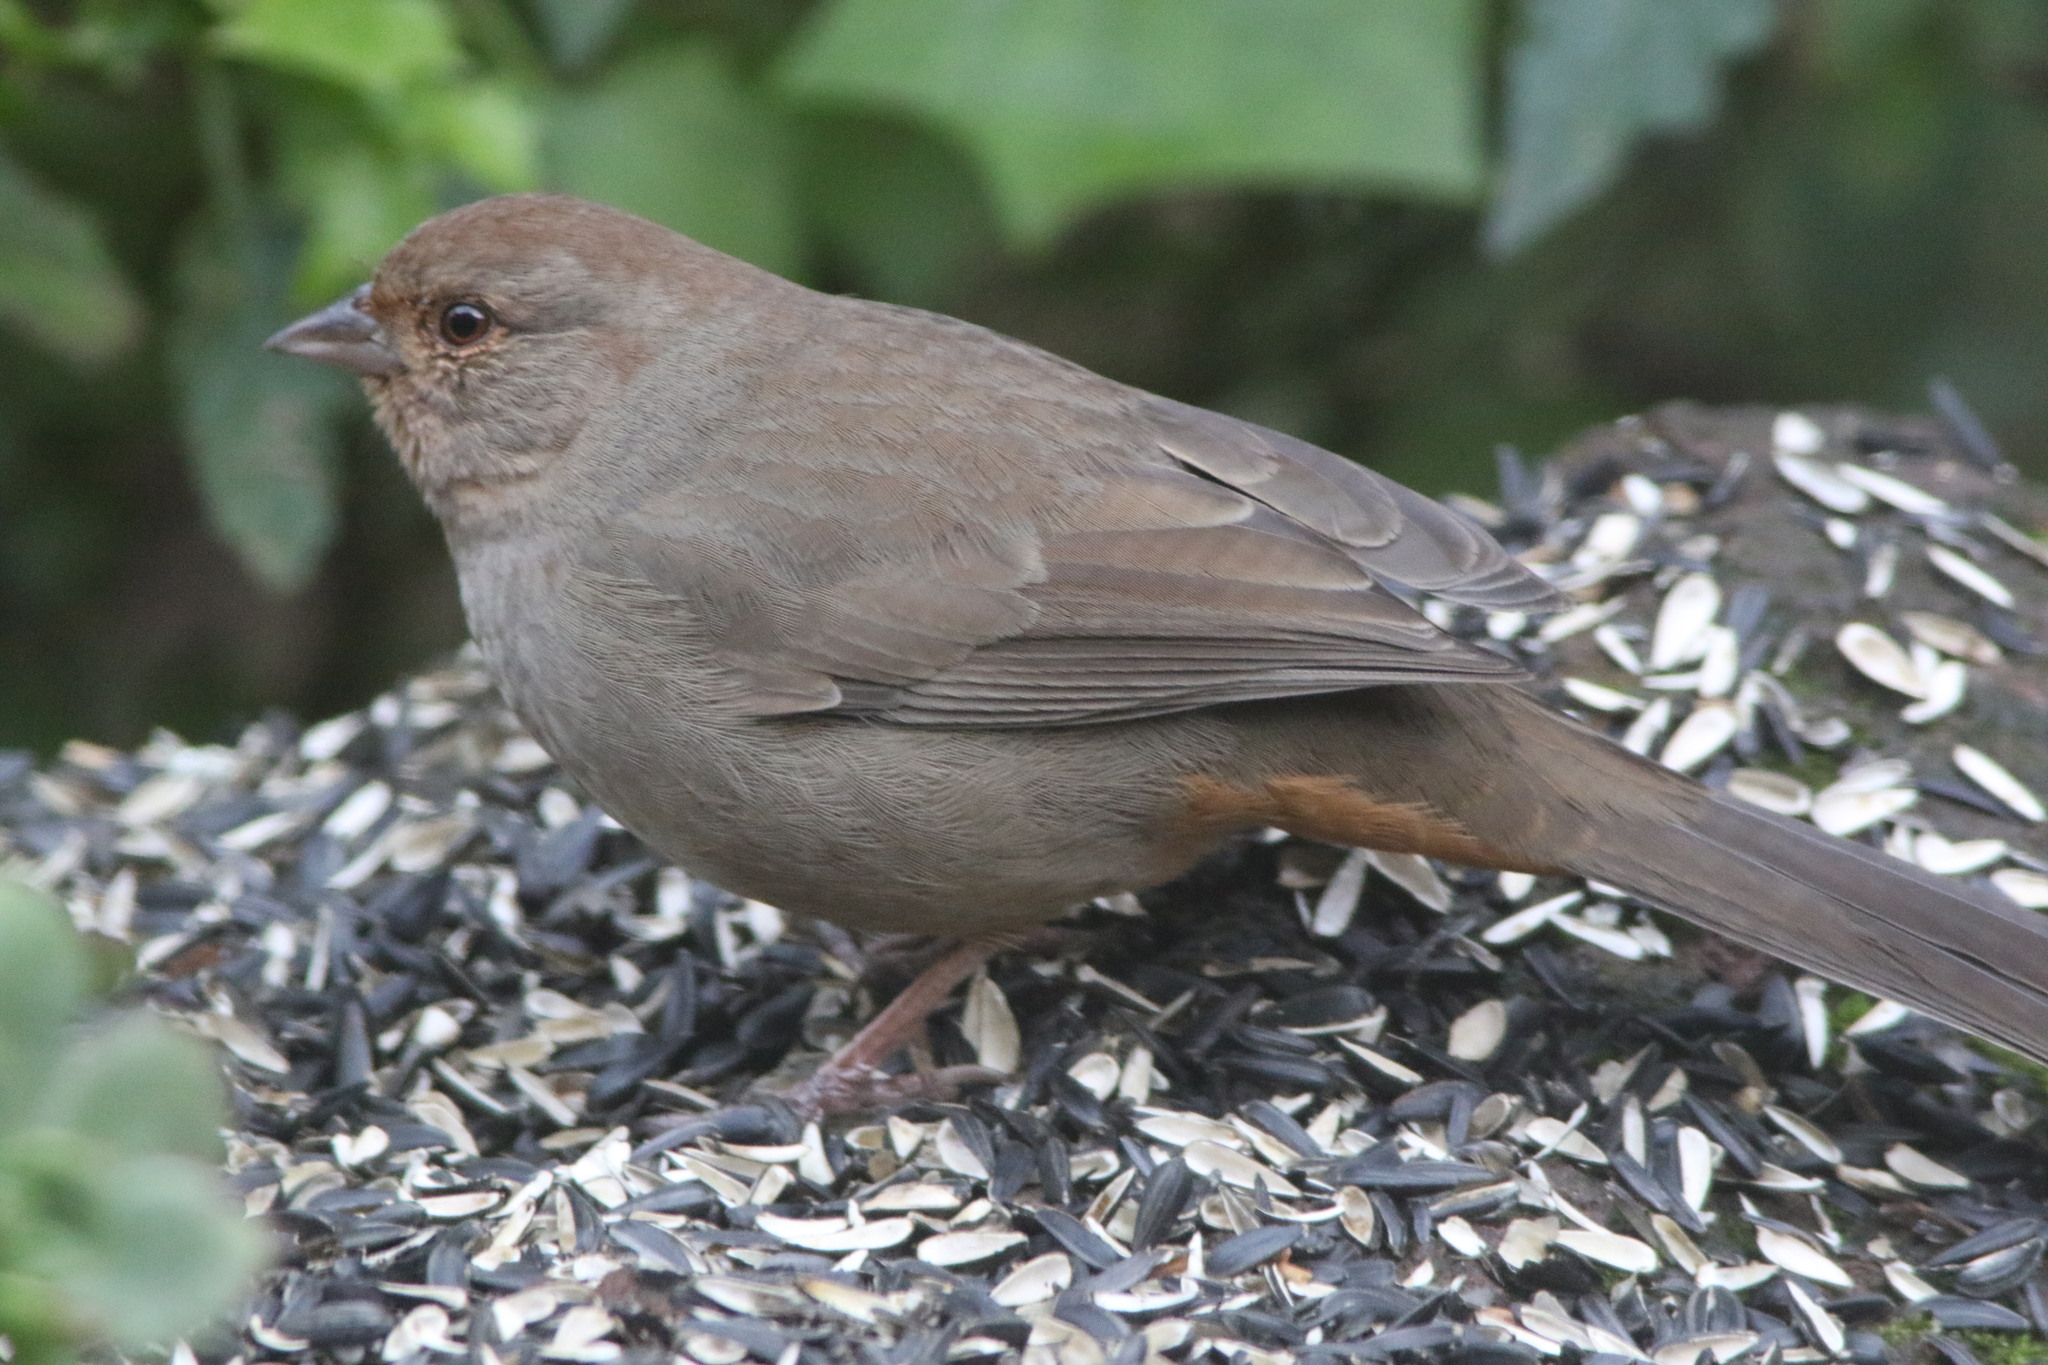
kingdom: Animalia
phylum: Chordata
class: Aves
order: Passeriformes
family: Passerellidae
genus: Melozone
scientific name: Melozone crissalis
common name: California towhee
